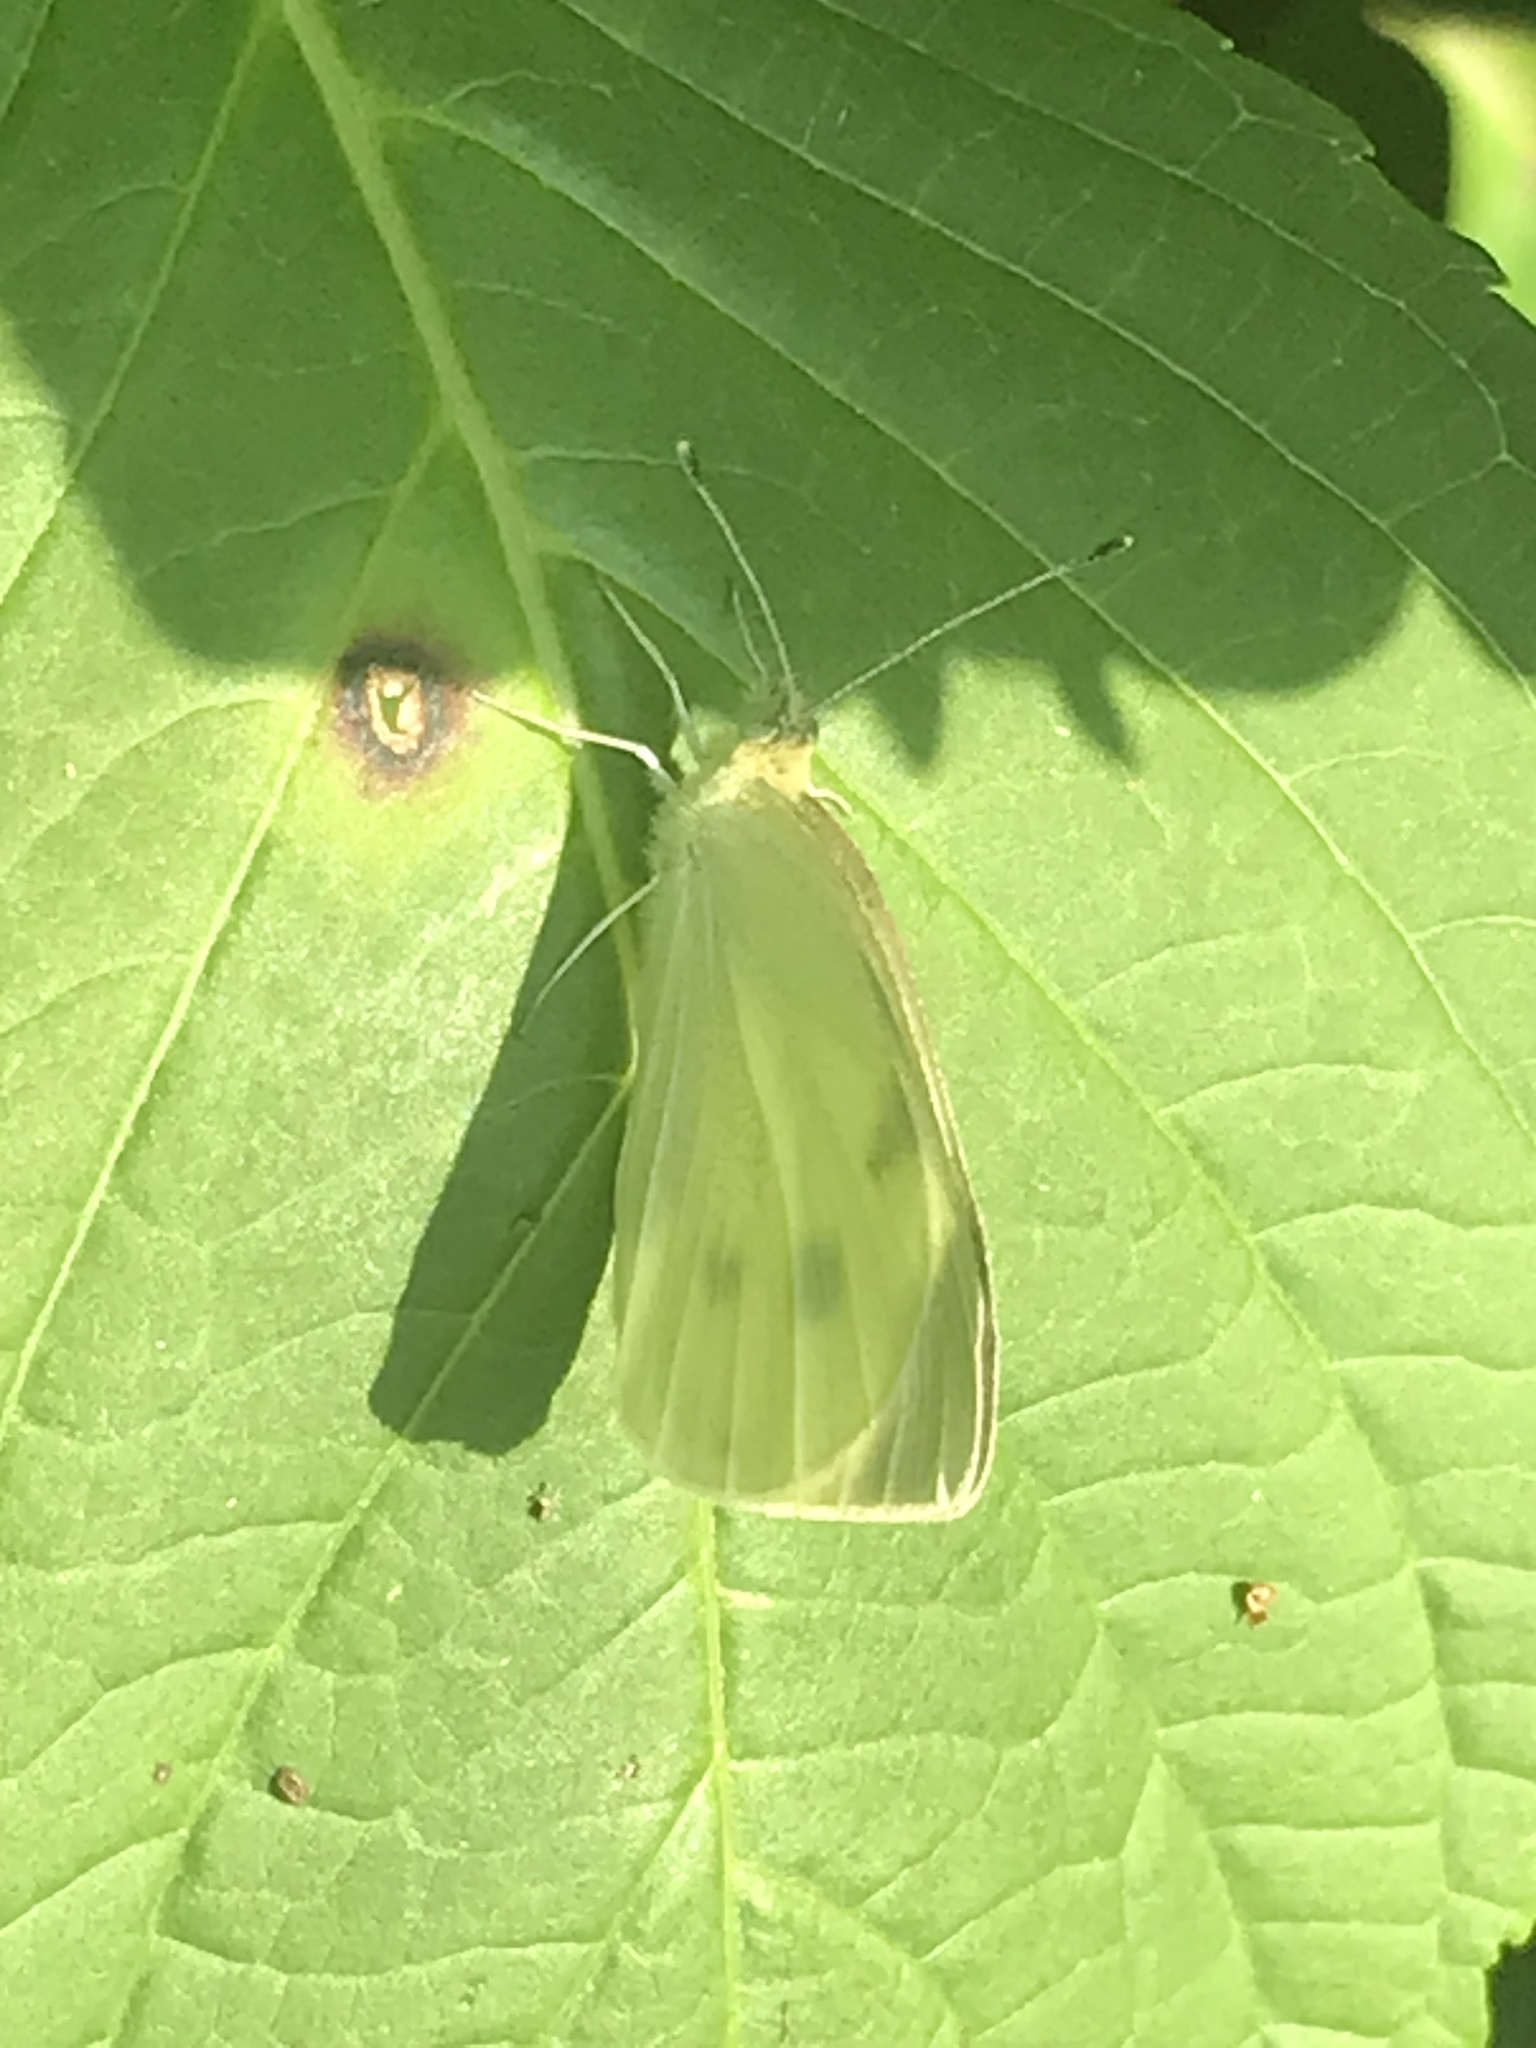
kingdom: Animalia
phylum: Arthropoda
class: Insecta
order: Lepidoptera
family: Pieridae
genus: Pieris
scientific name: Pieris rapae
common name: Small white
